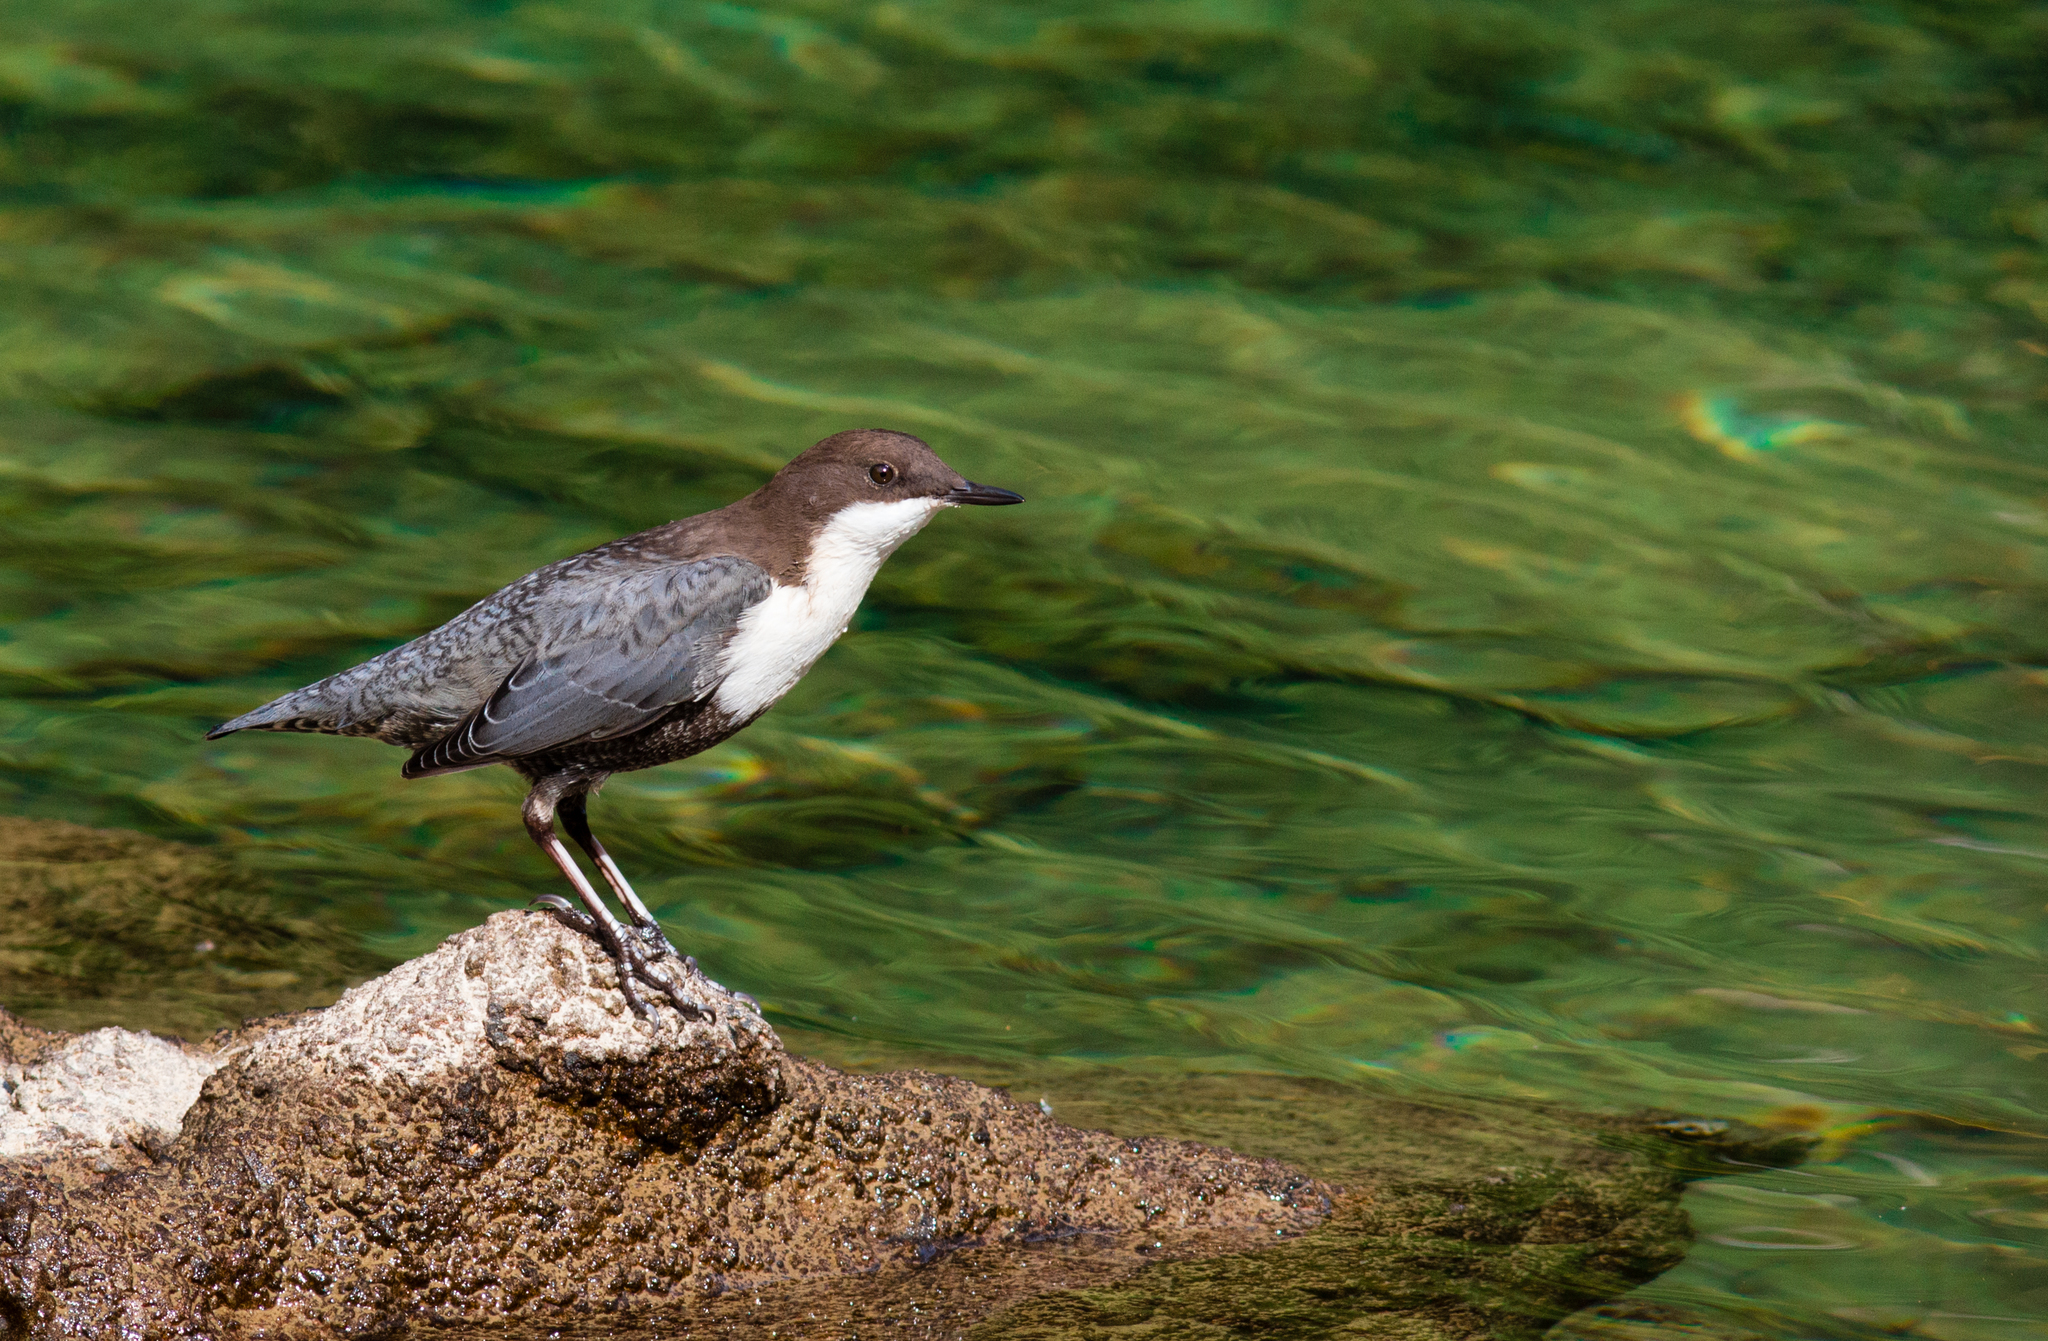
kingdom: Animalia
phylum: Chordata
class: Aves
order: Passeriformes
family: Cinclidae
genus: Cinclus
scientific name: Cinclus cinclus
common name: White-throated dipper
